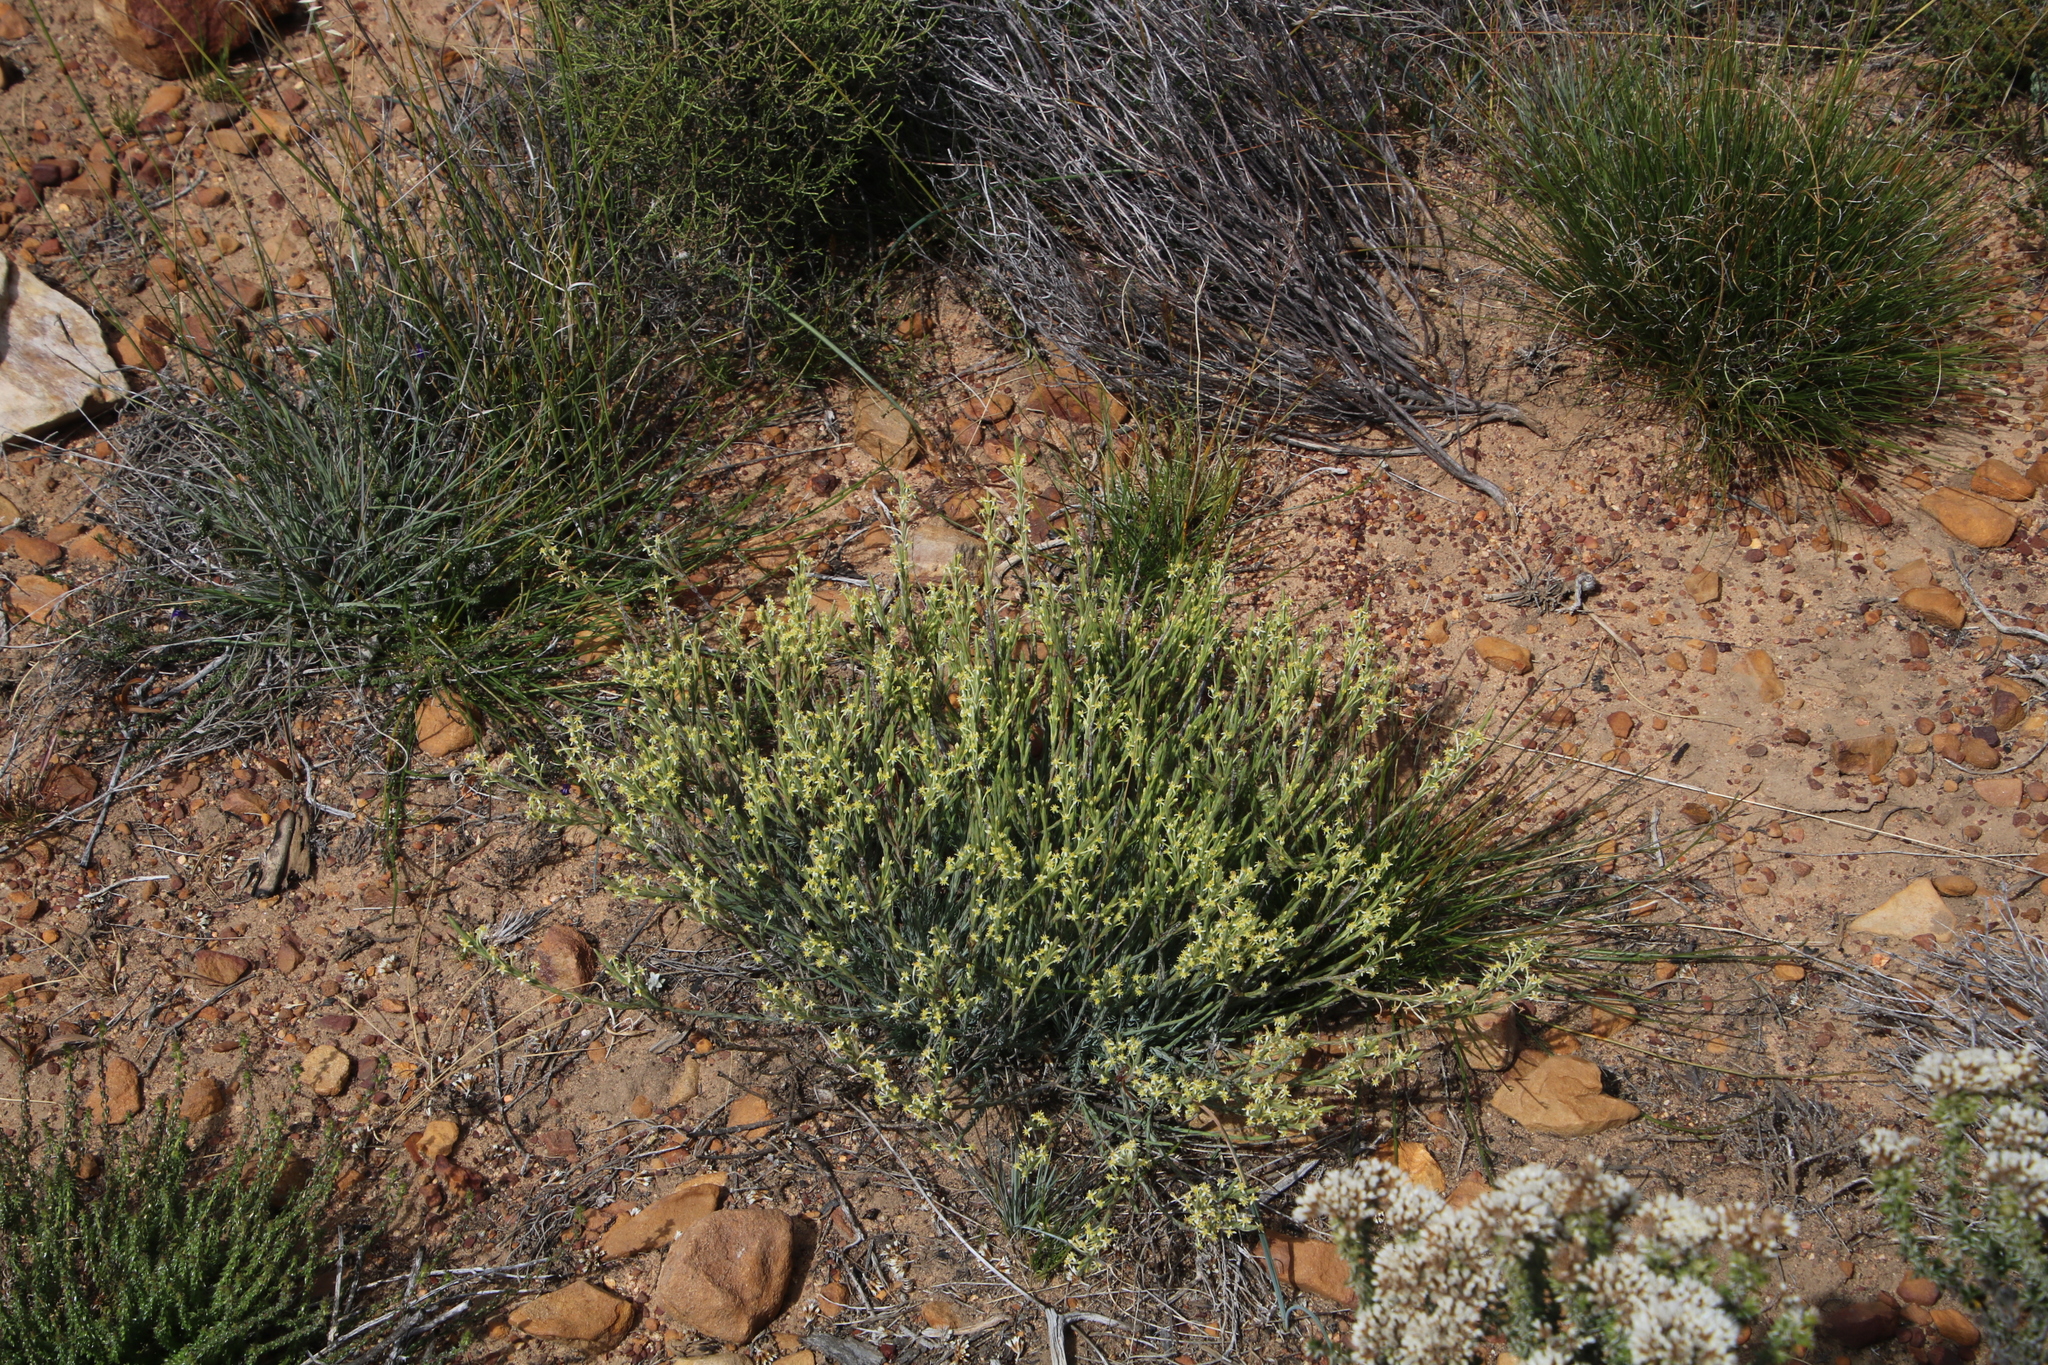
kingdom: Plantae
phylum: Tracheophyta
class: Magnoliopsida
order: Malvales
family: Thymelaeaceae
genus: Struthiola
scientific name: Struthiola ciliata
